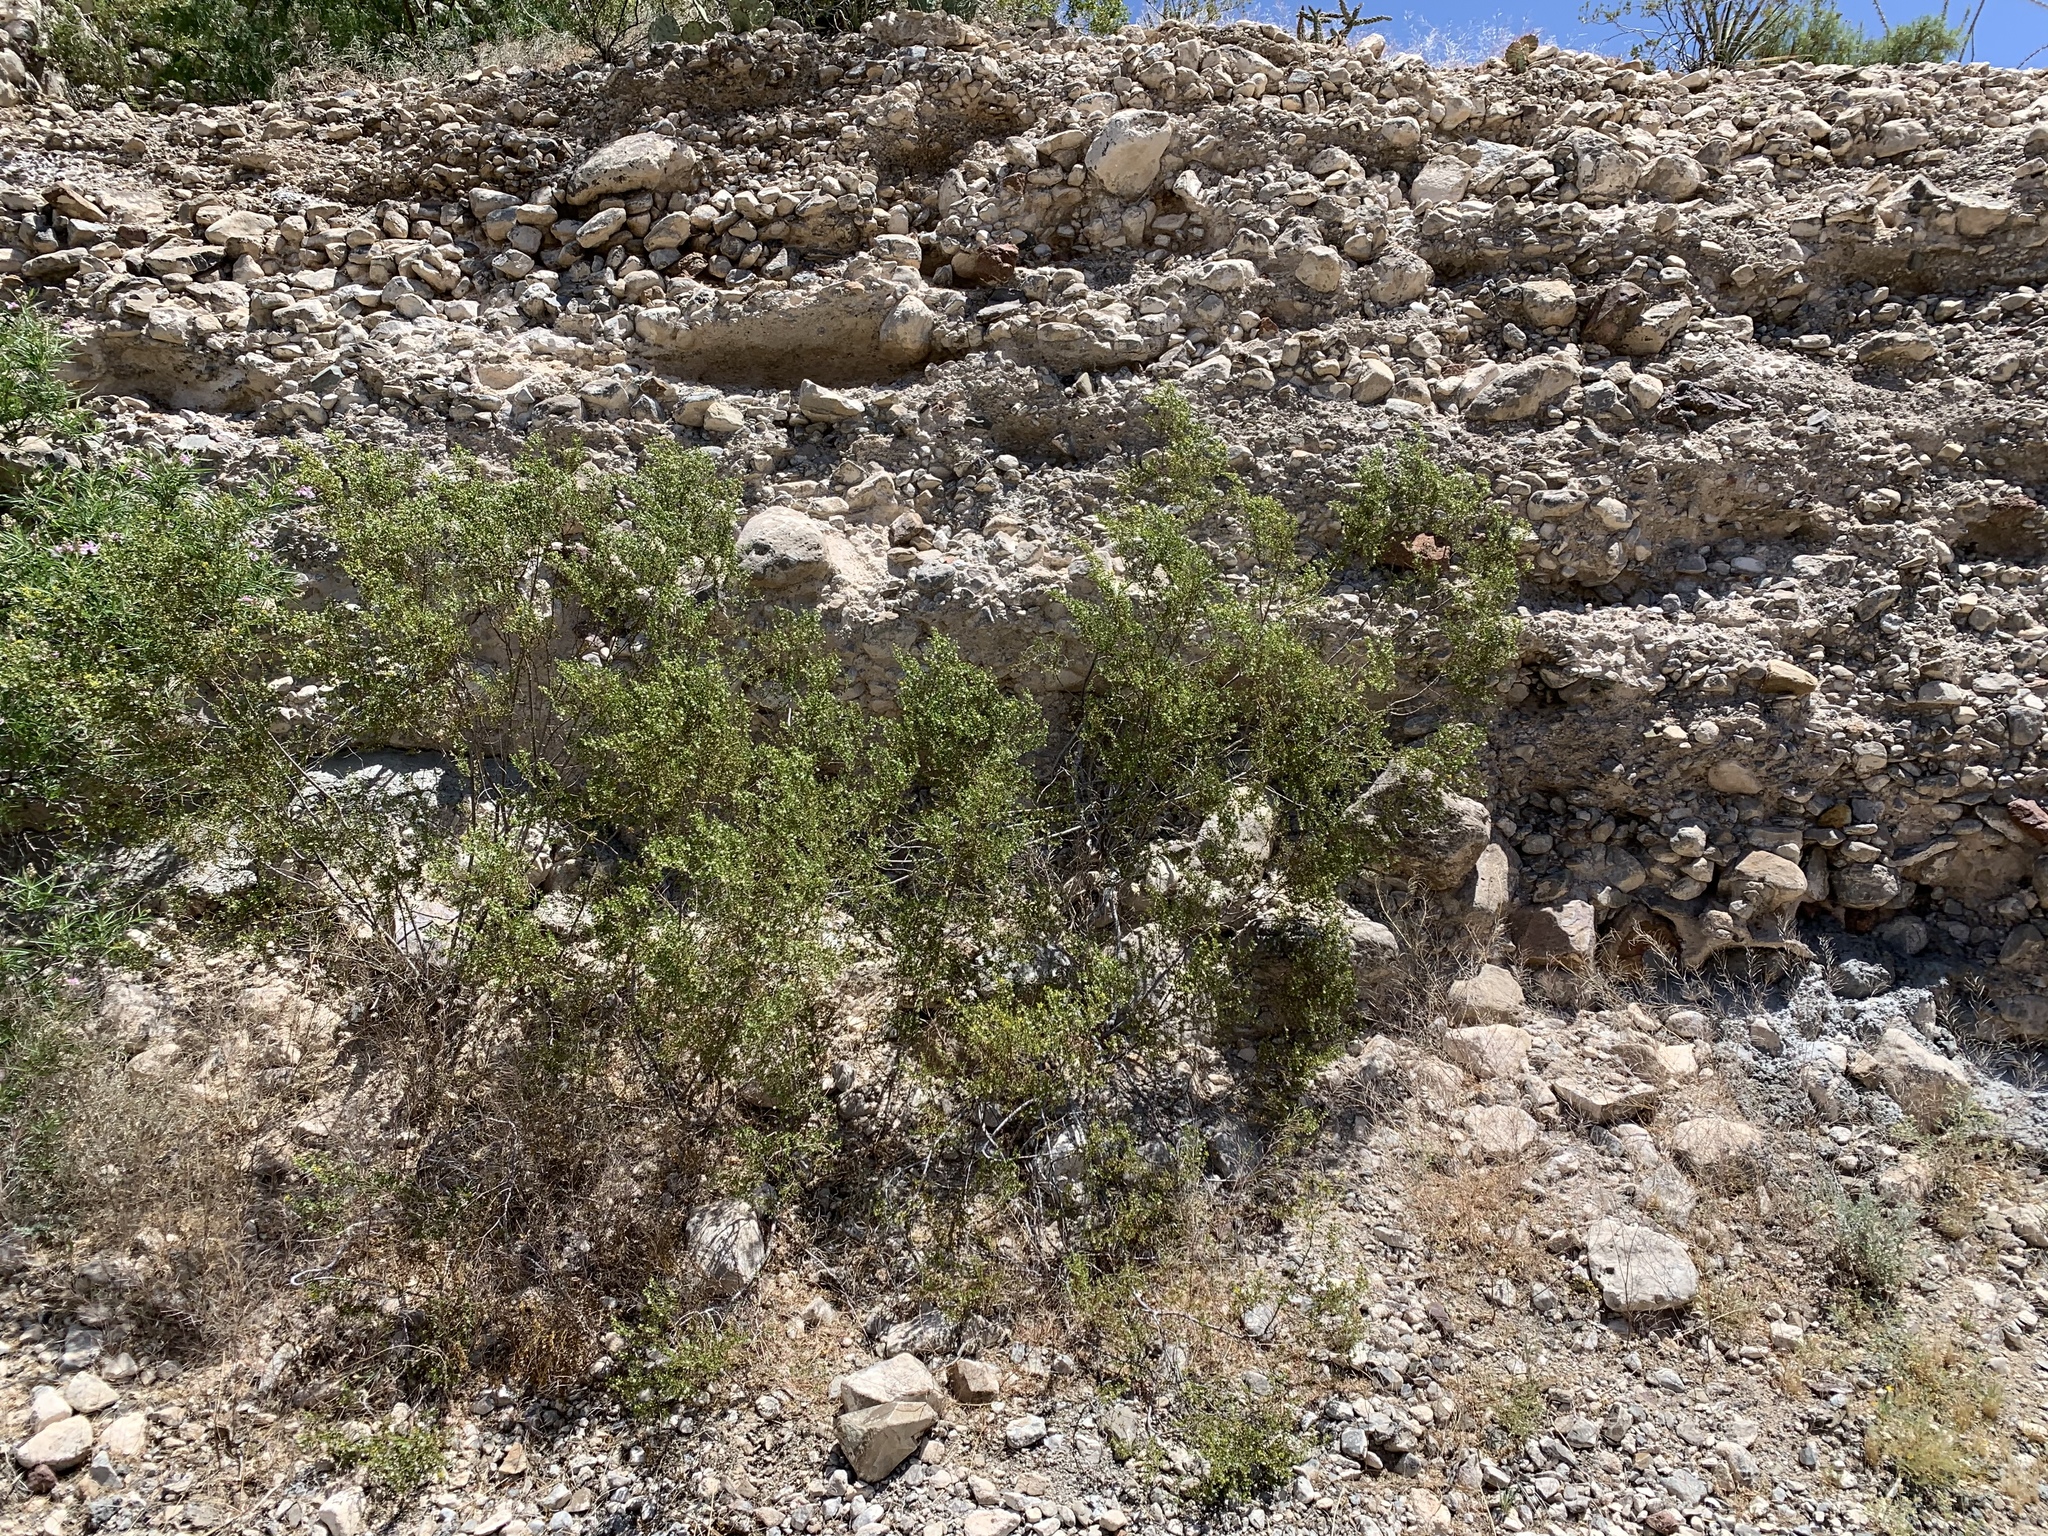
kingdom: Plantae
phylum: Tracheophyta
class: Magnoliopsida
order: Zygophyllales
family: Zygophyllaceae
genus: Larrea
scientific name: Larrea tridentata
